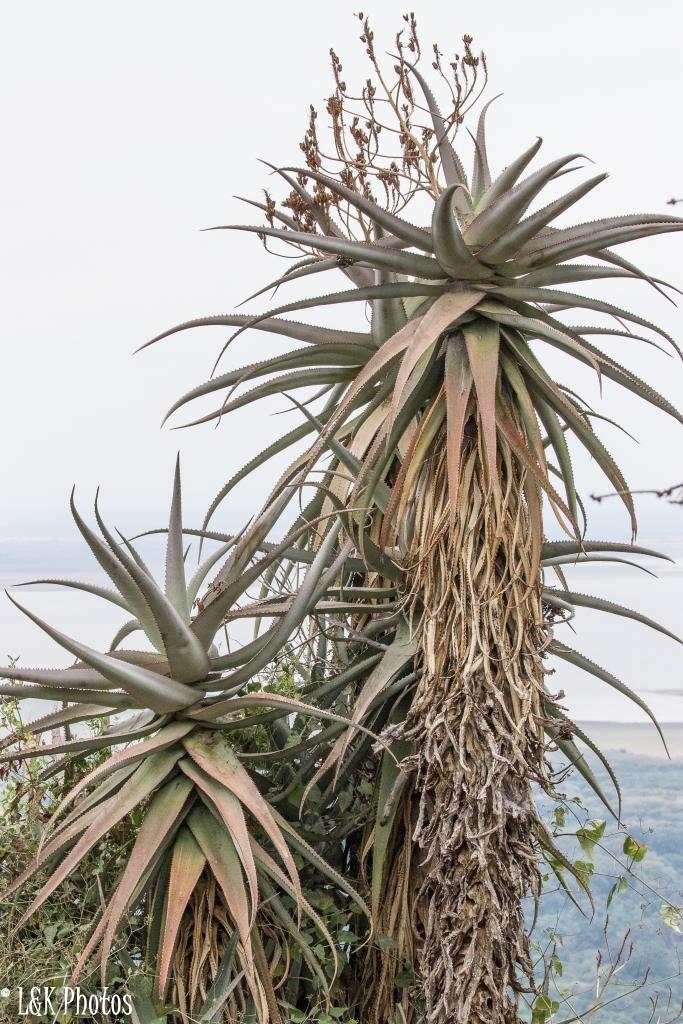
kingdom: Plantae
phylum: Tracheophyta
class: Liliopsida
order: Asparagales
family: Asphodelaceae
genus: Aloe
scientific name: Aloe volkensii
